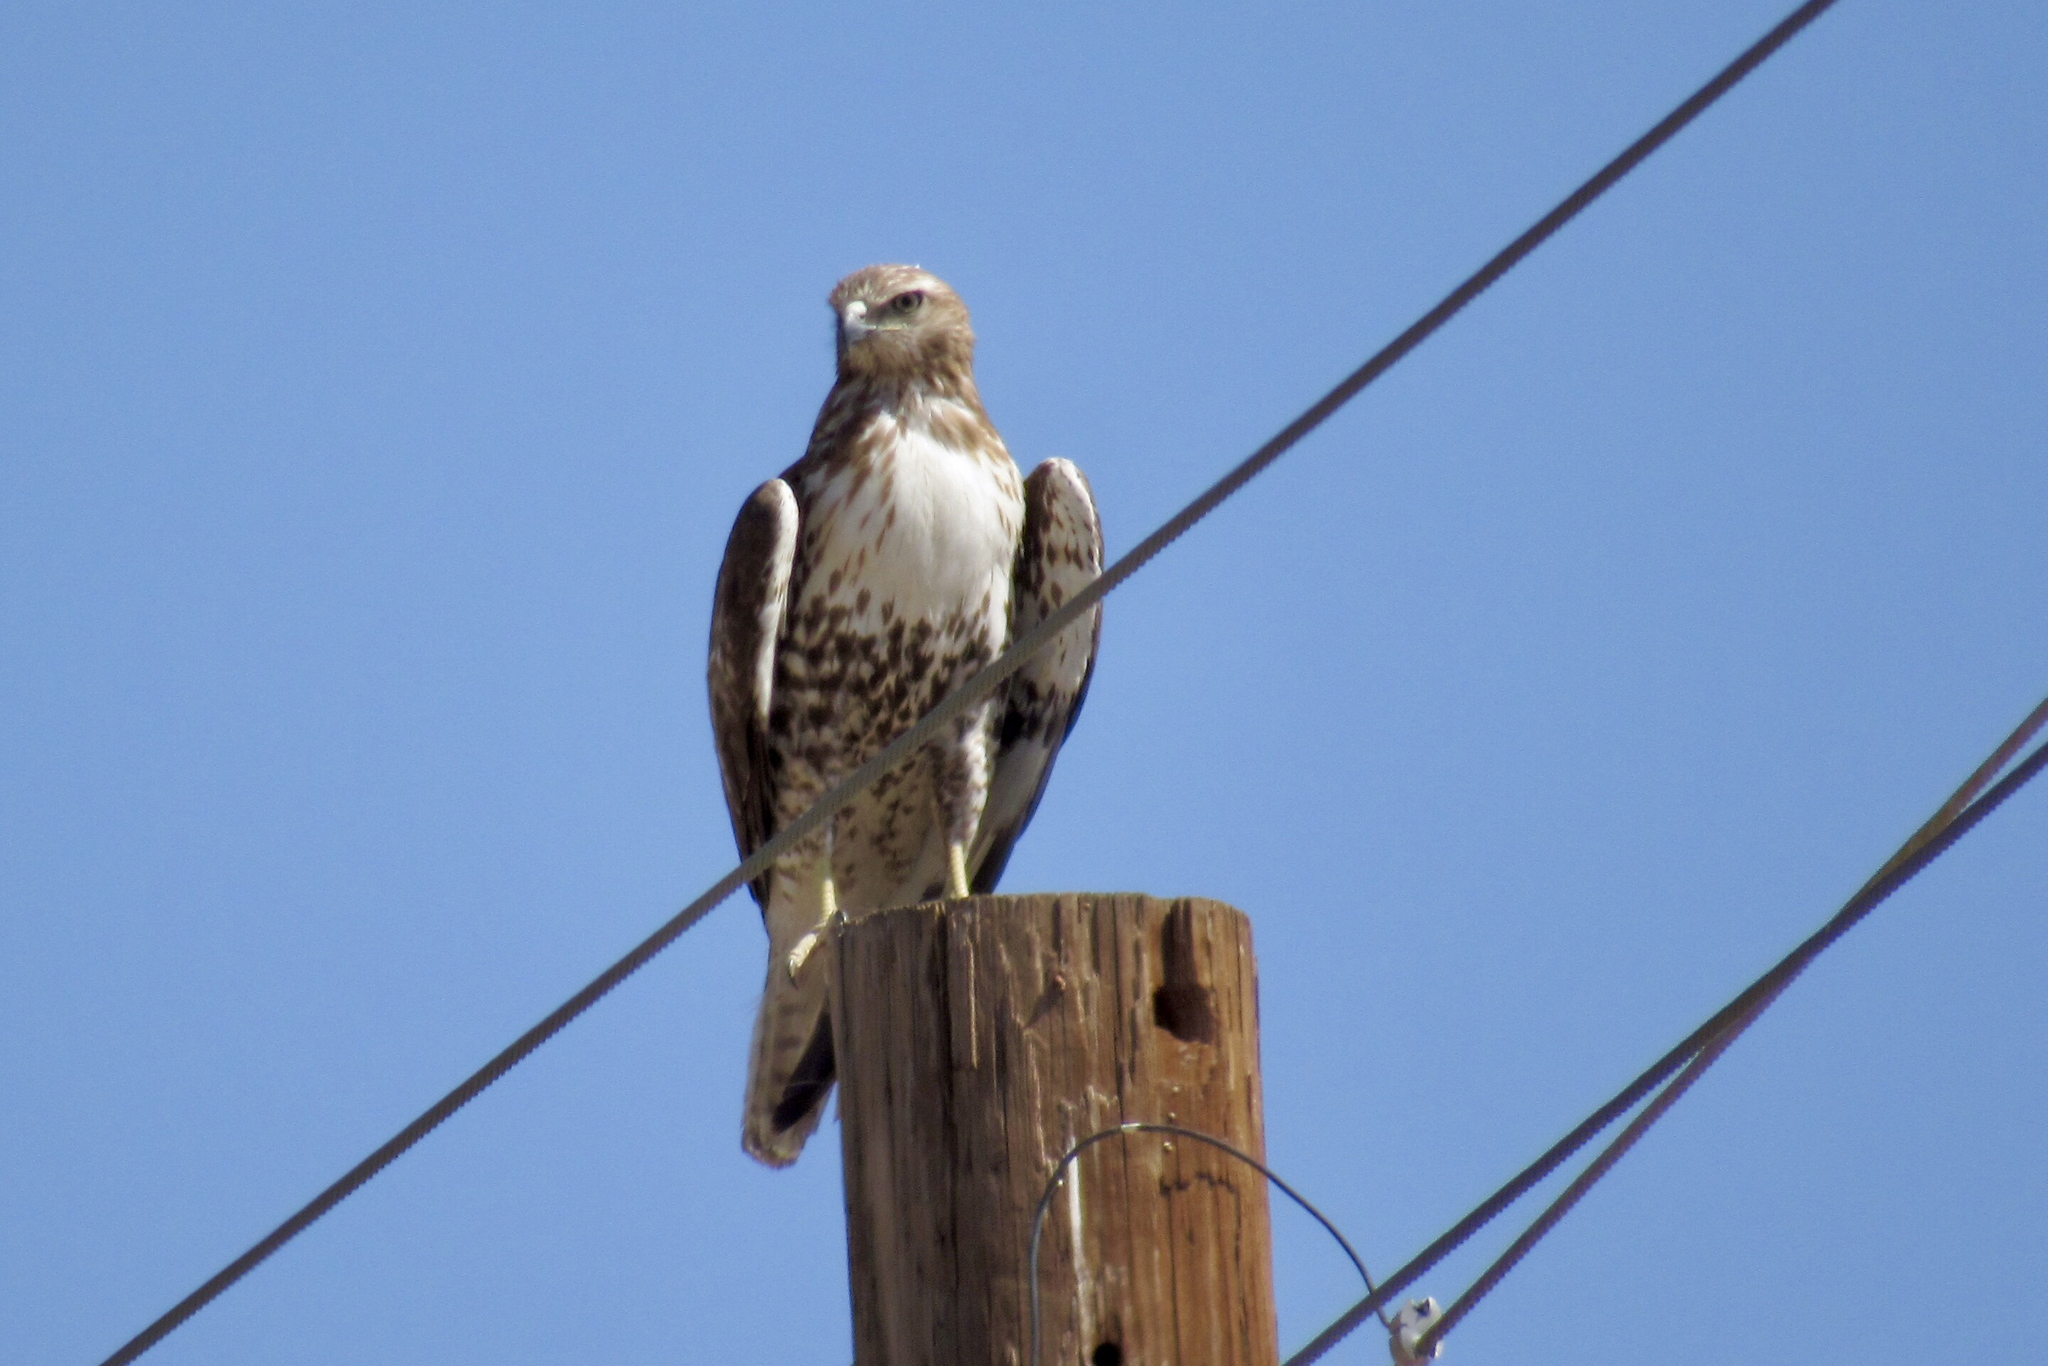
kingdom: Animalia
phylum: Chordata
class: Aves
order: Accipitriformes
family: Accipitridae
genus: Buteo
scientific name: Buteo jamaicensis
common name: Red-tailed hawk
